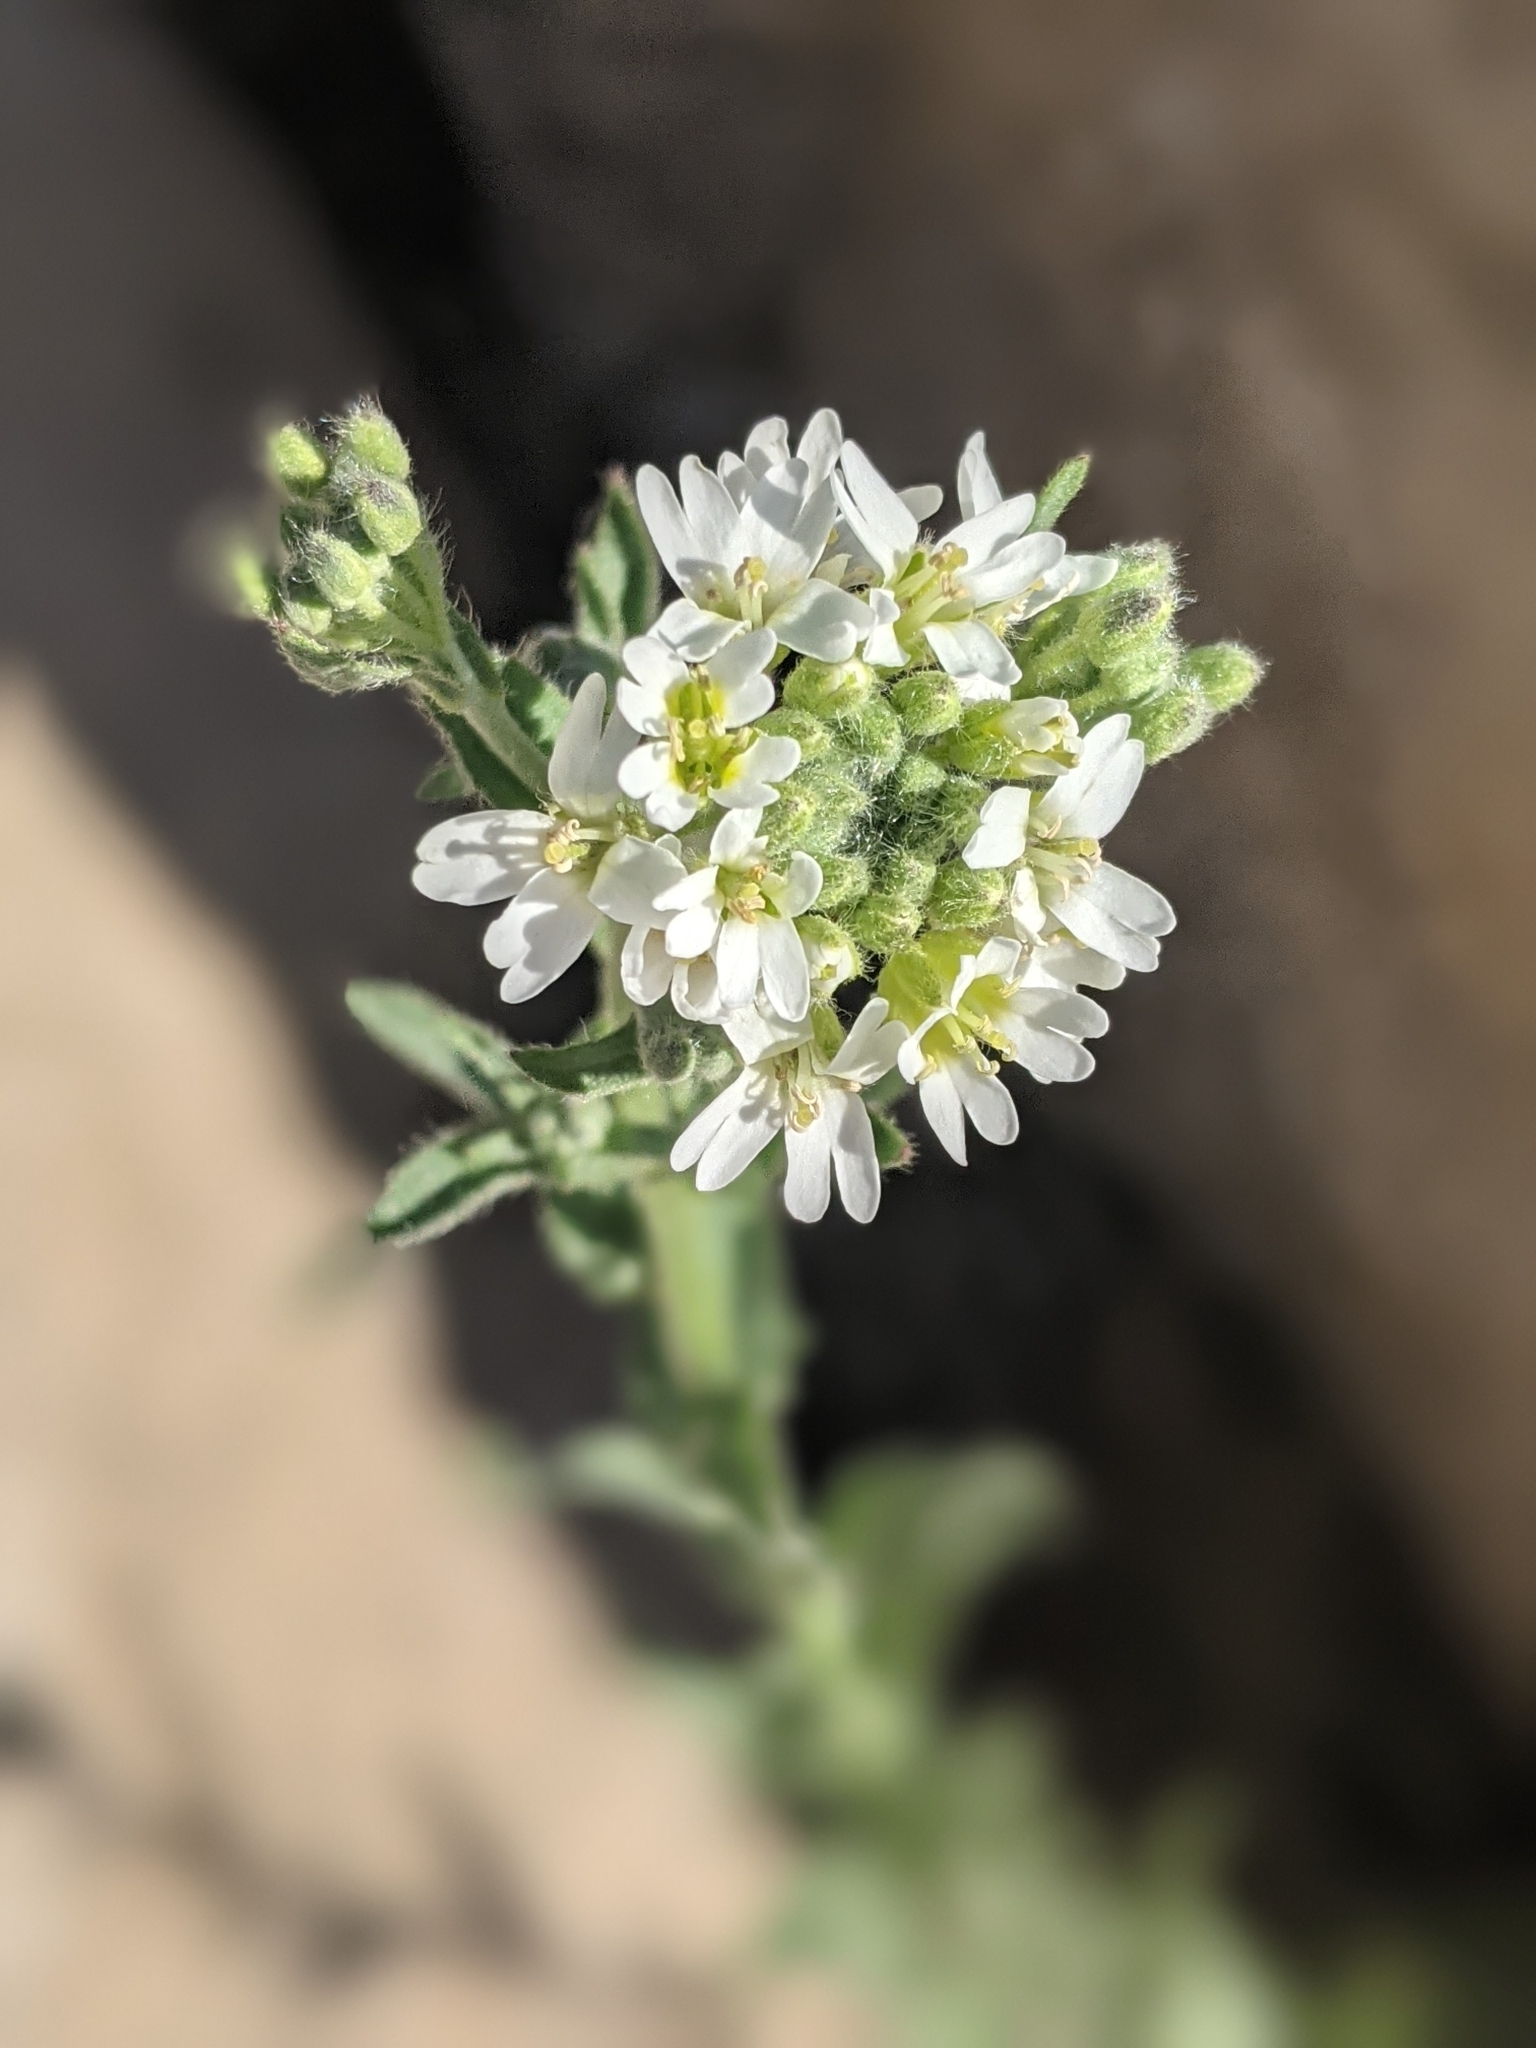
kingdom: Plantae
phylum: Tracheophyta
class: Magnoliopsida
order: Brassicales
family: Brassicaceae
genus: Berteroa
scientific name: Berteroa incana
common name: Hoary alison
